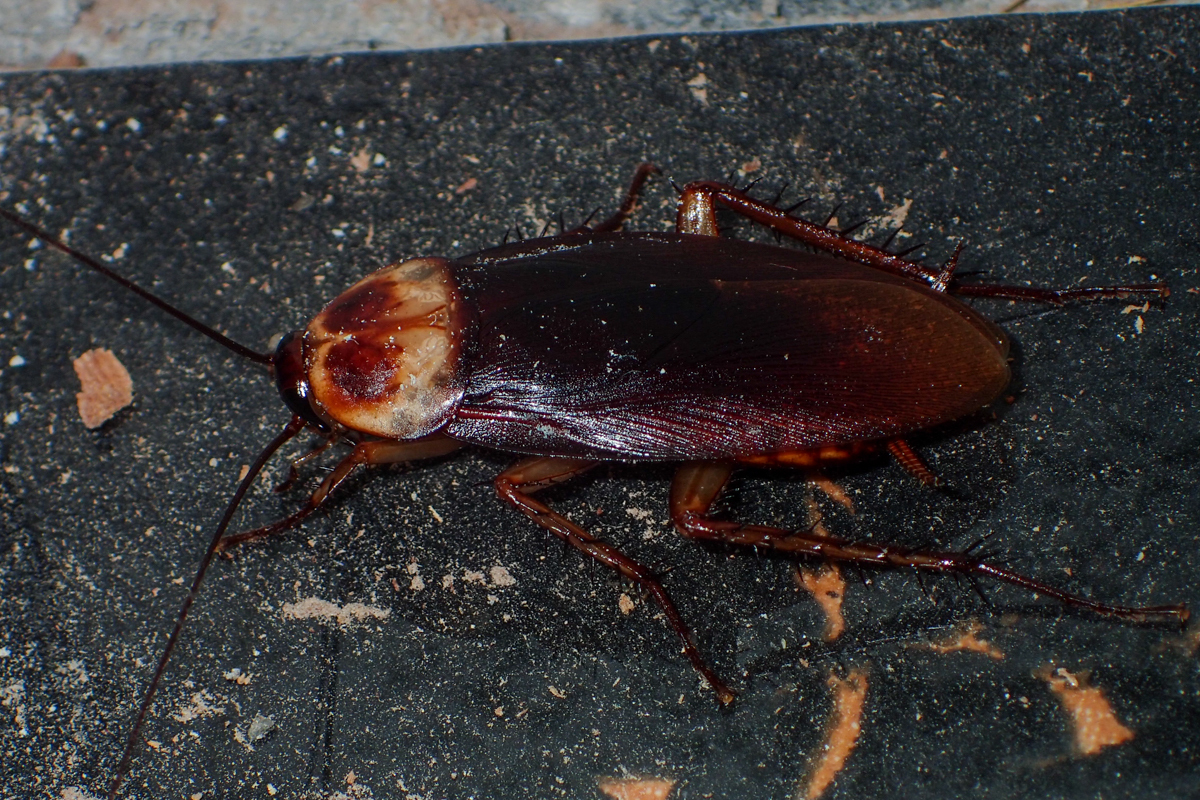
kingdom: Animalia
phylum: Arthropoda
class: Insecta
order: Blattodea
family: Blattidae
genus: Periplaneta
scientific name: Periplaneta americana
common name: American cockroach
